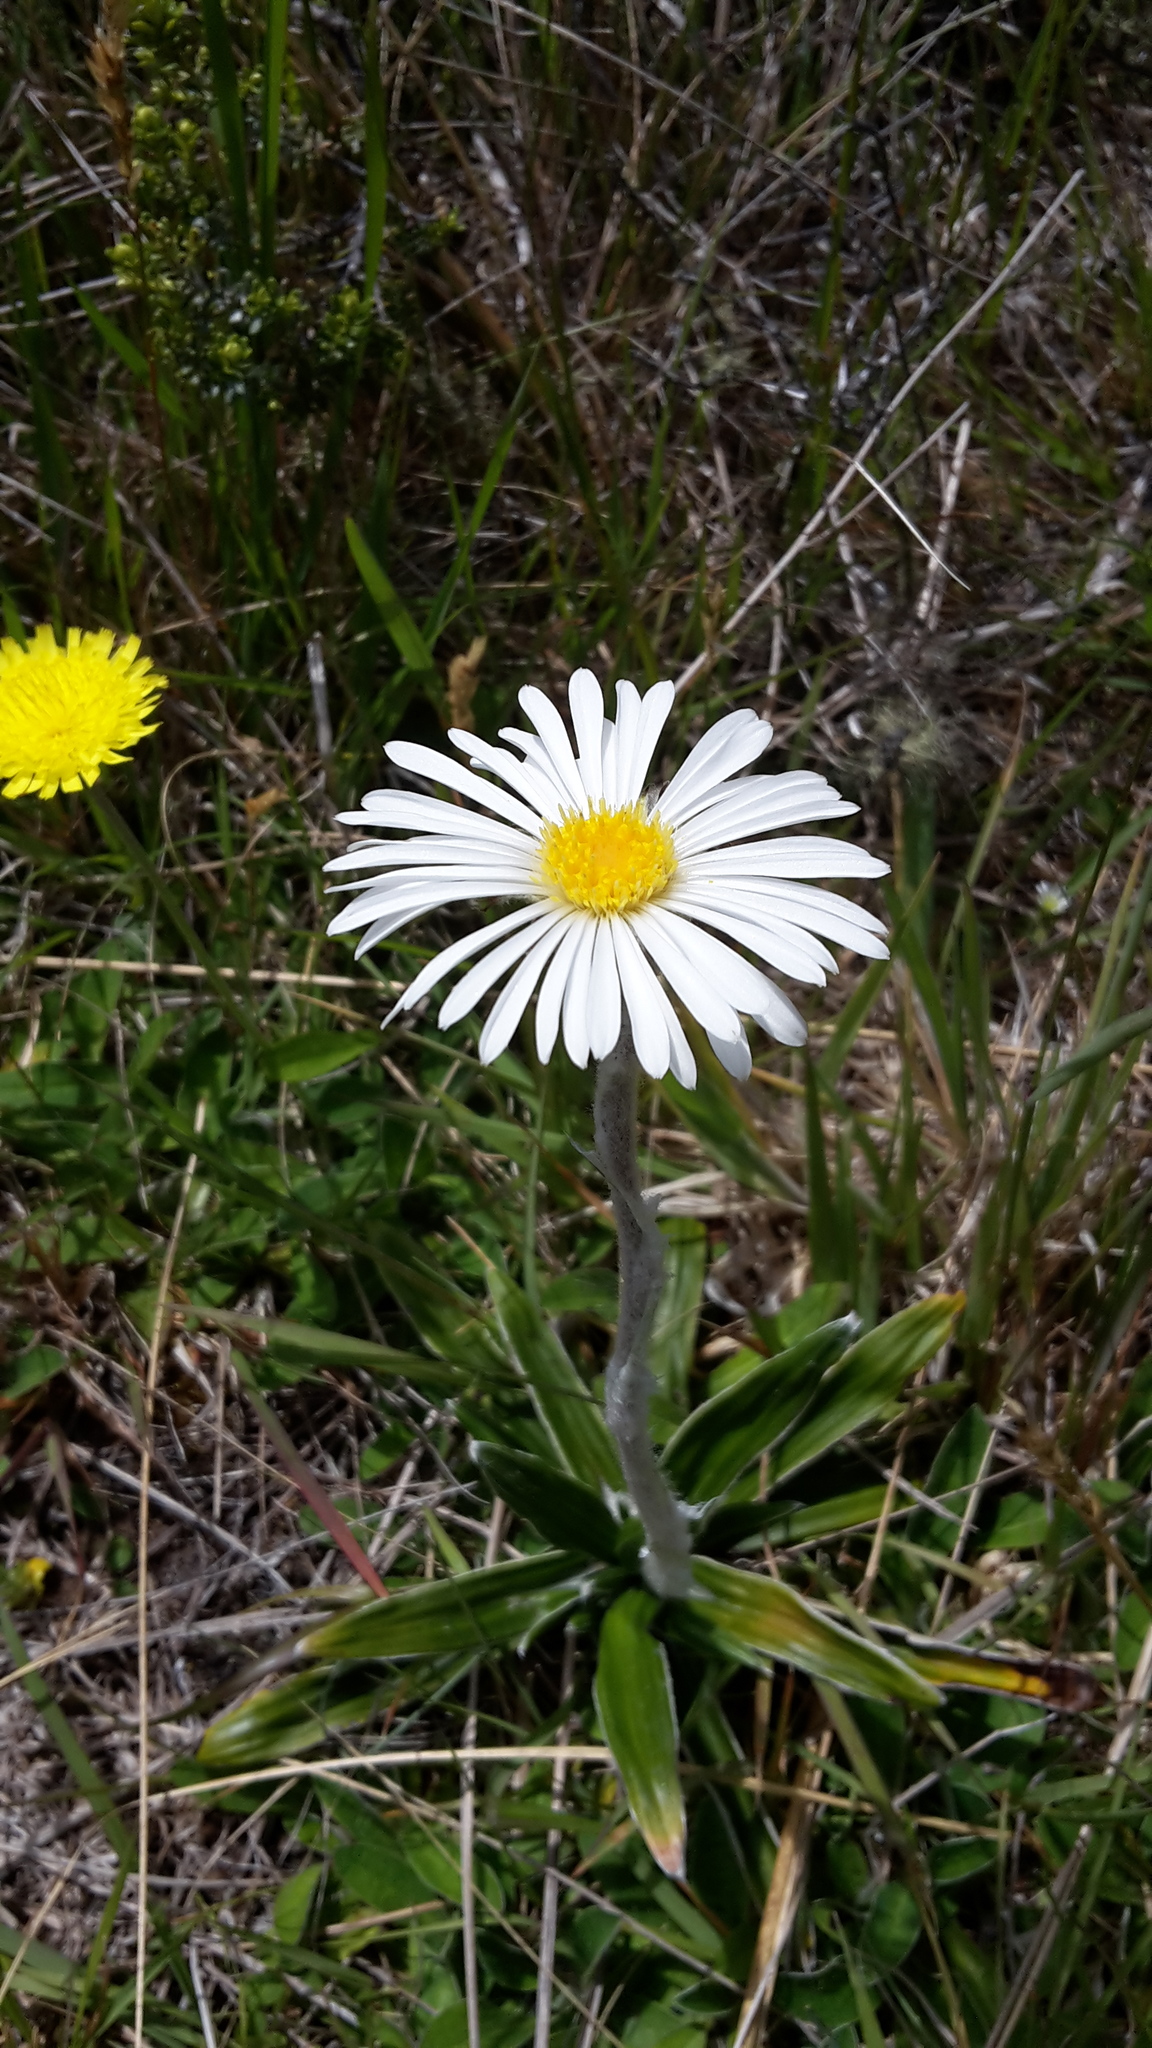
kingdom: Plantae
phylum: Tracheophyta
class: Magnoliopsida
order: Asterales
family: Asteraceae
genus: Celmisia
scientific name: Celmisia spectabilis
